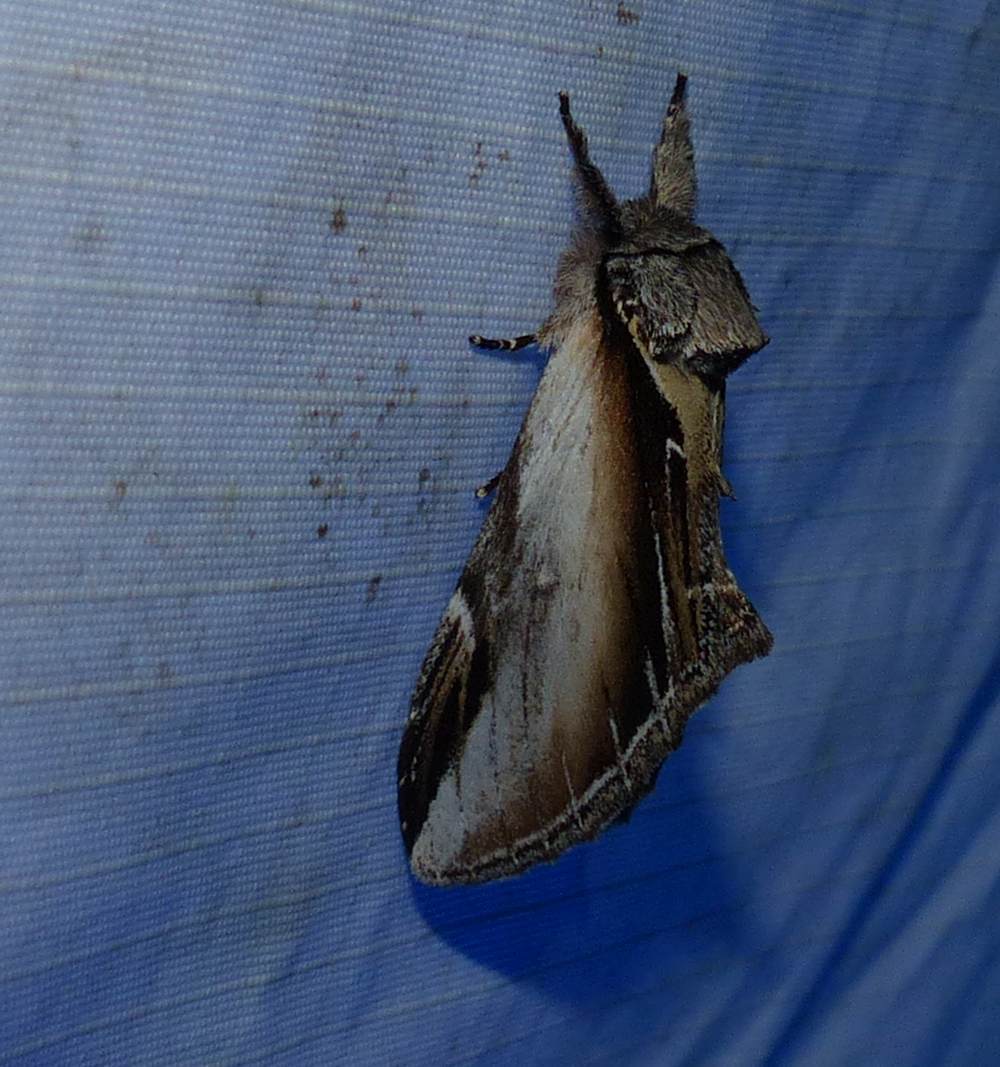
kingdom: Animalia
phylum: Arthropoda
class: Insecta
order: Lepidoptera
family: Notodontidae
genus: Pheosia
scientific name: Pheosia rimosa
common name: Black-rimmed prominent
